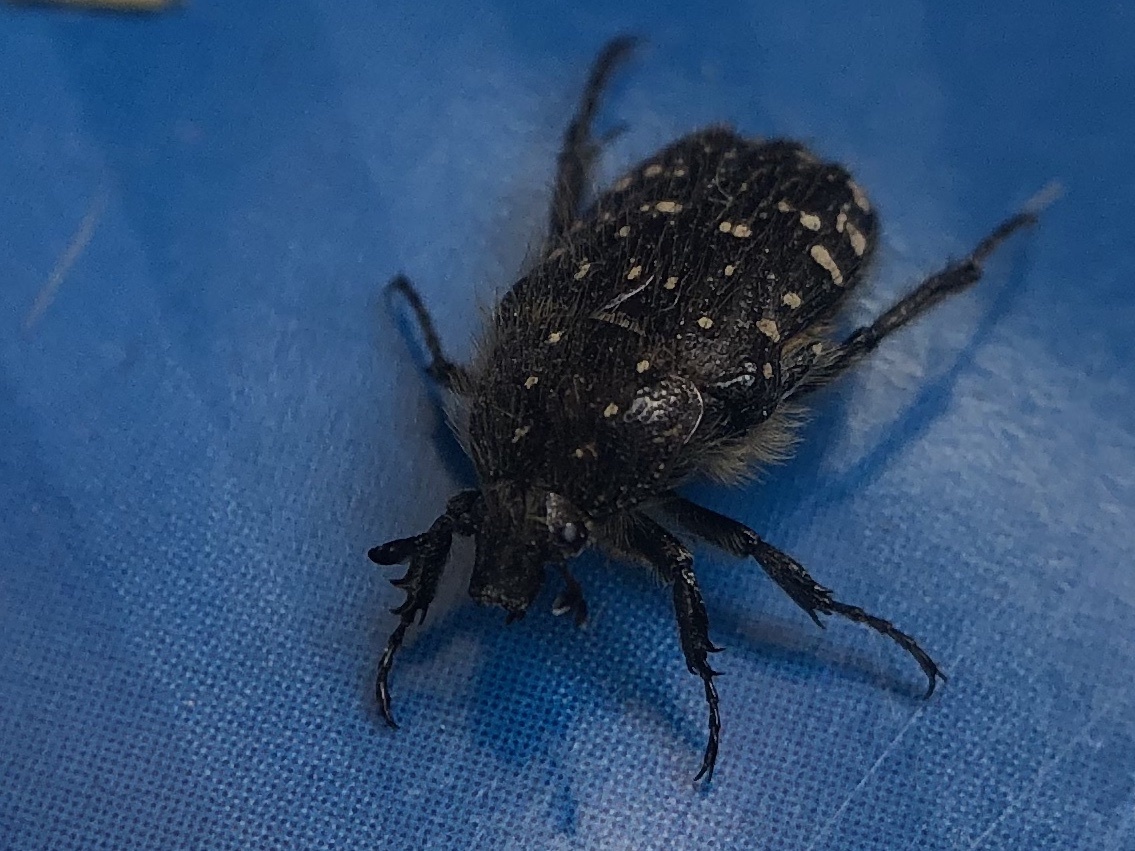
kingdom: Animalia
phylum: Arthropoda
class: Insecta
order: Coleoptera
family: Scarabaeidae
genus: Oxythyrea
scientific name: Oxythyrea funesta
